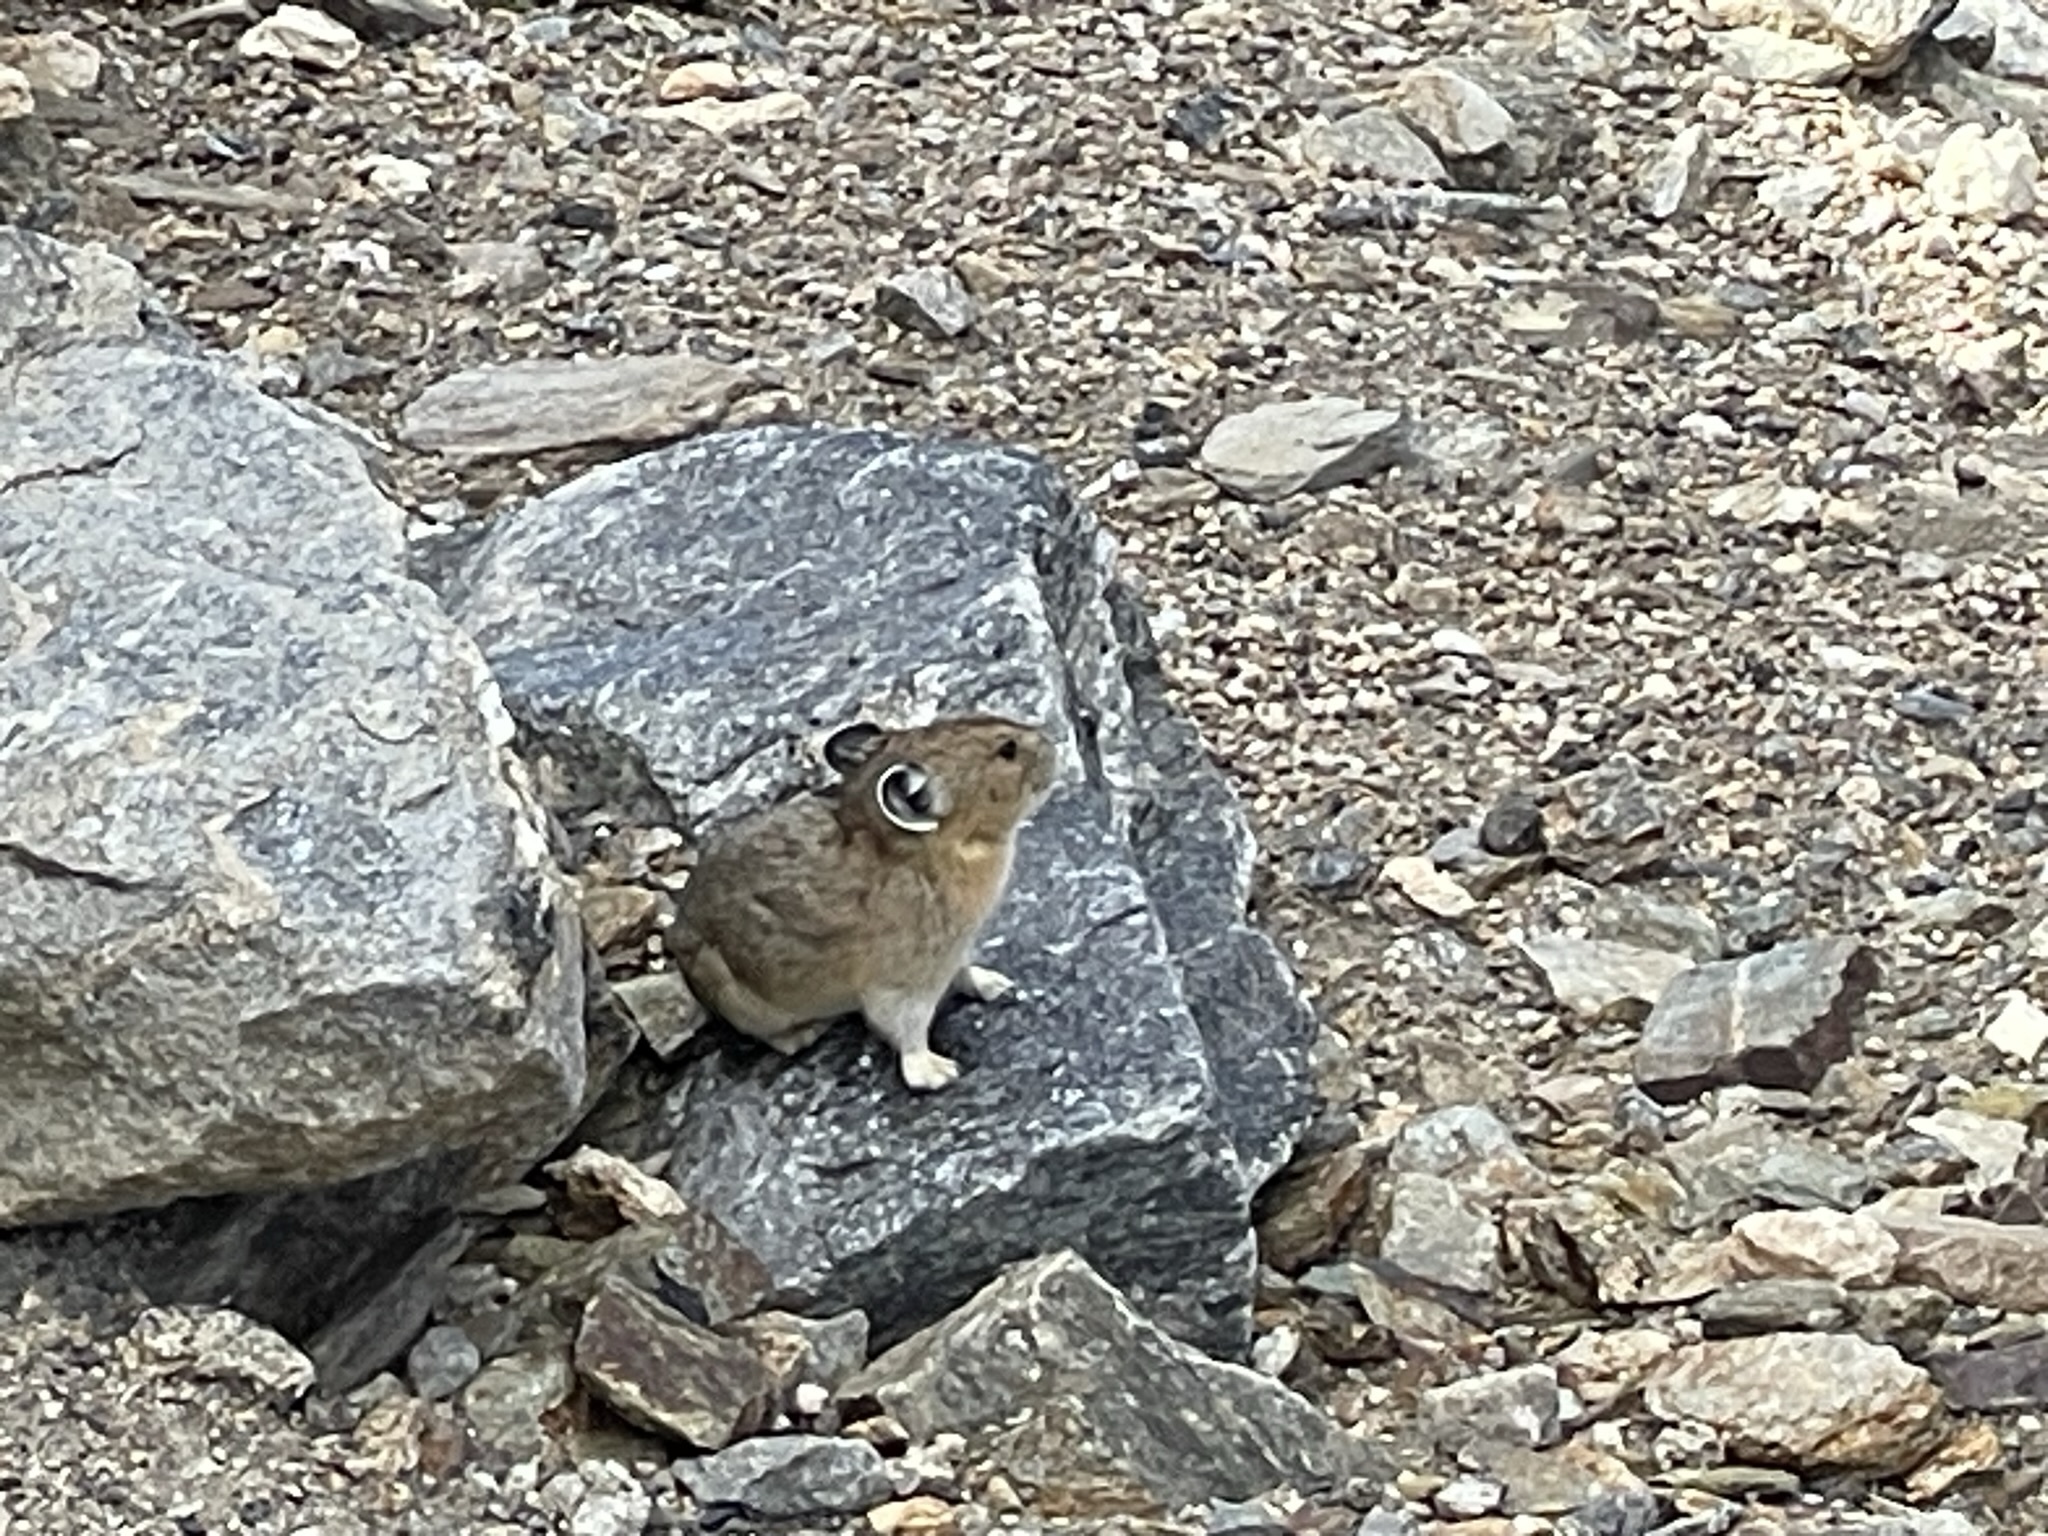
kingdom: Animalia
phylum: Chordata
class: Mammalia
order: Lagomorpha
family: Ochotonidae
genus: Ochotona
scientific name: Ochotona princeps
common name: American pika
